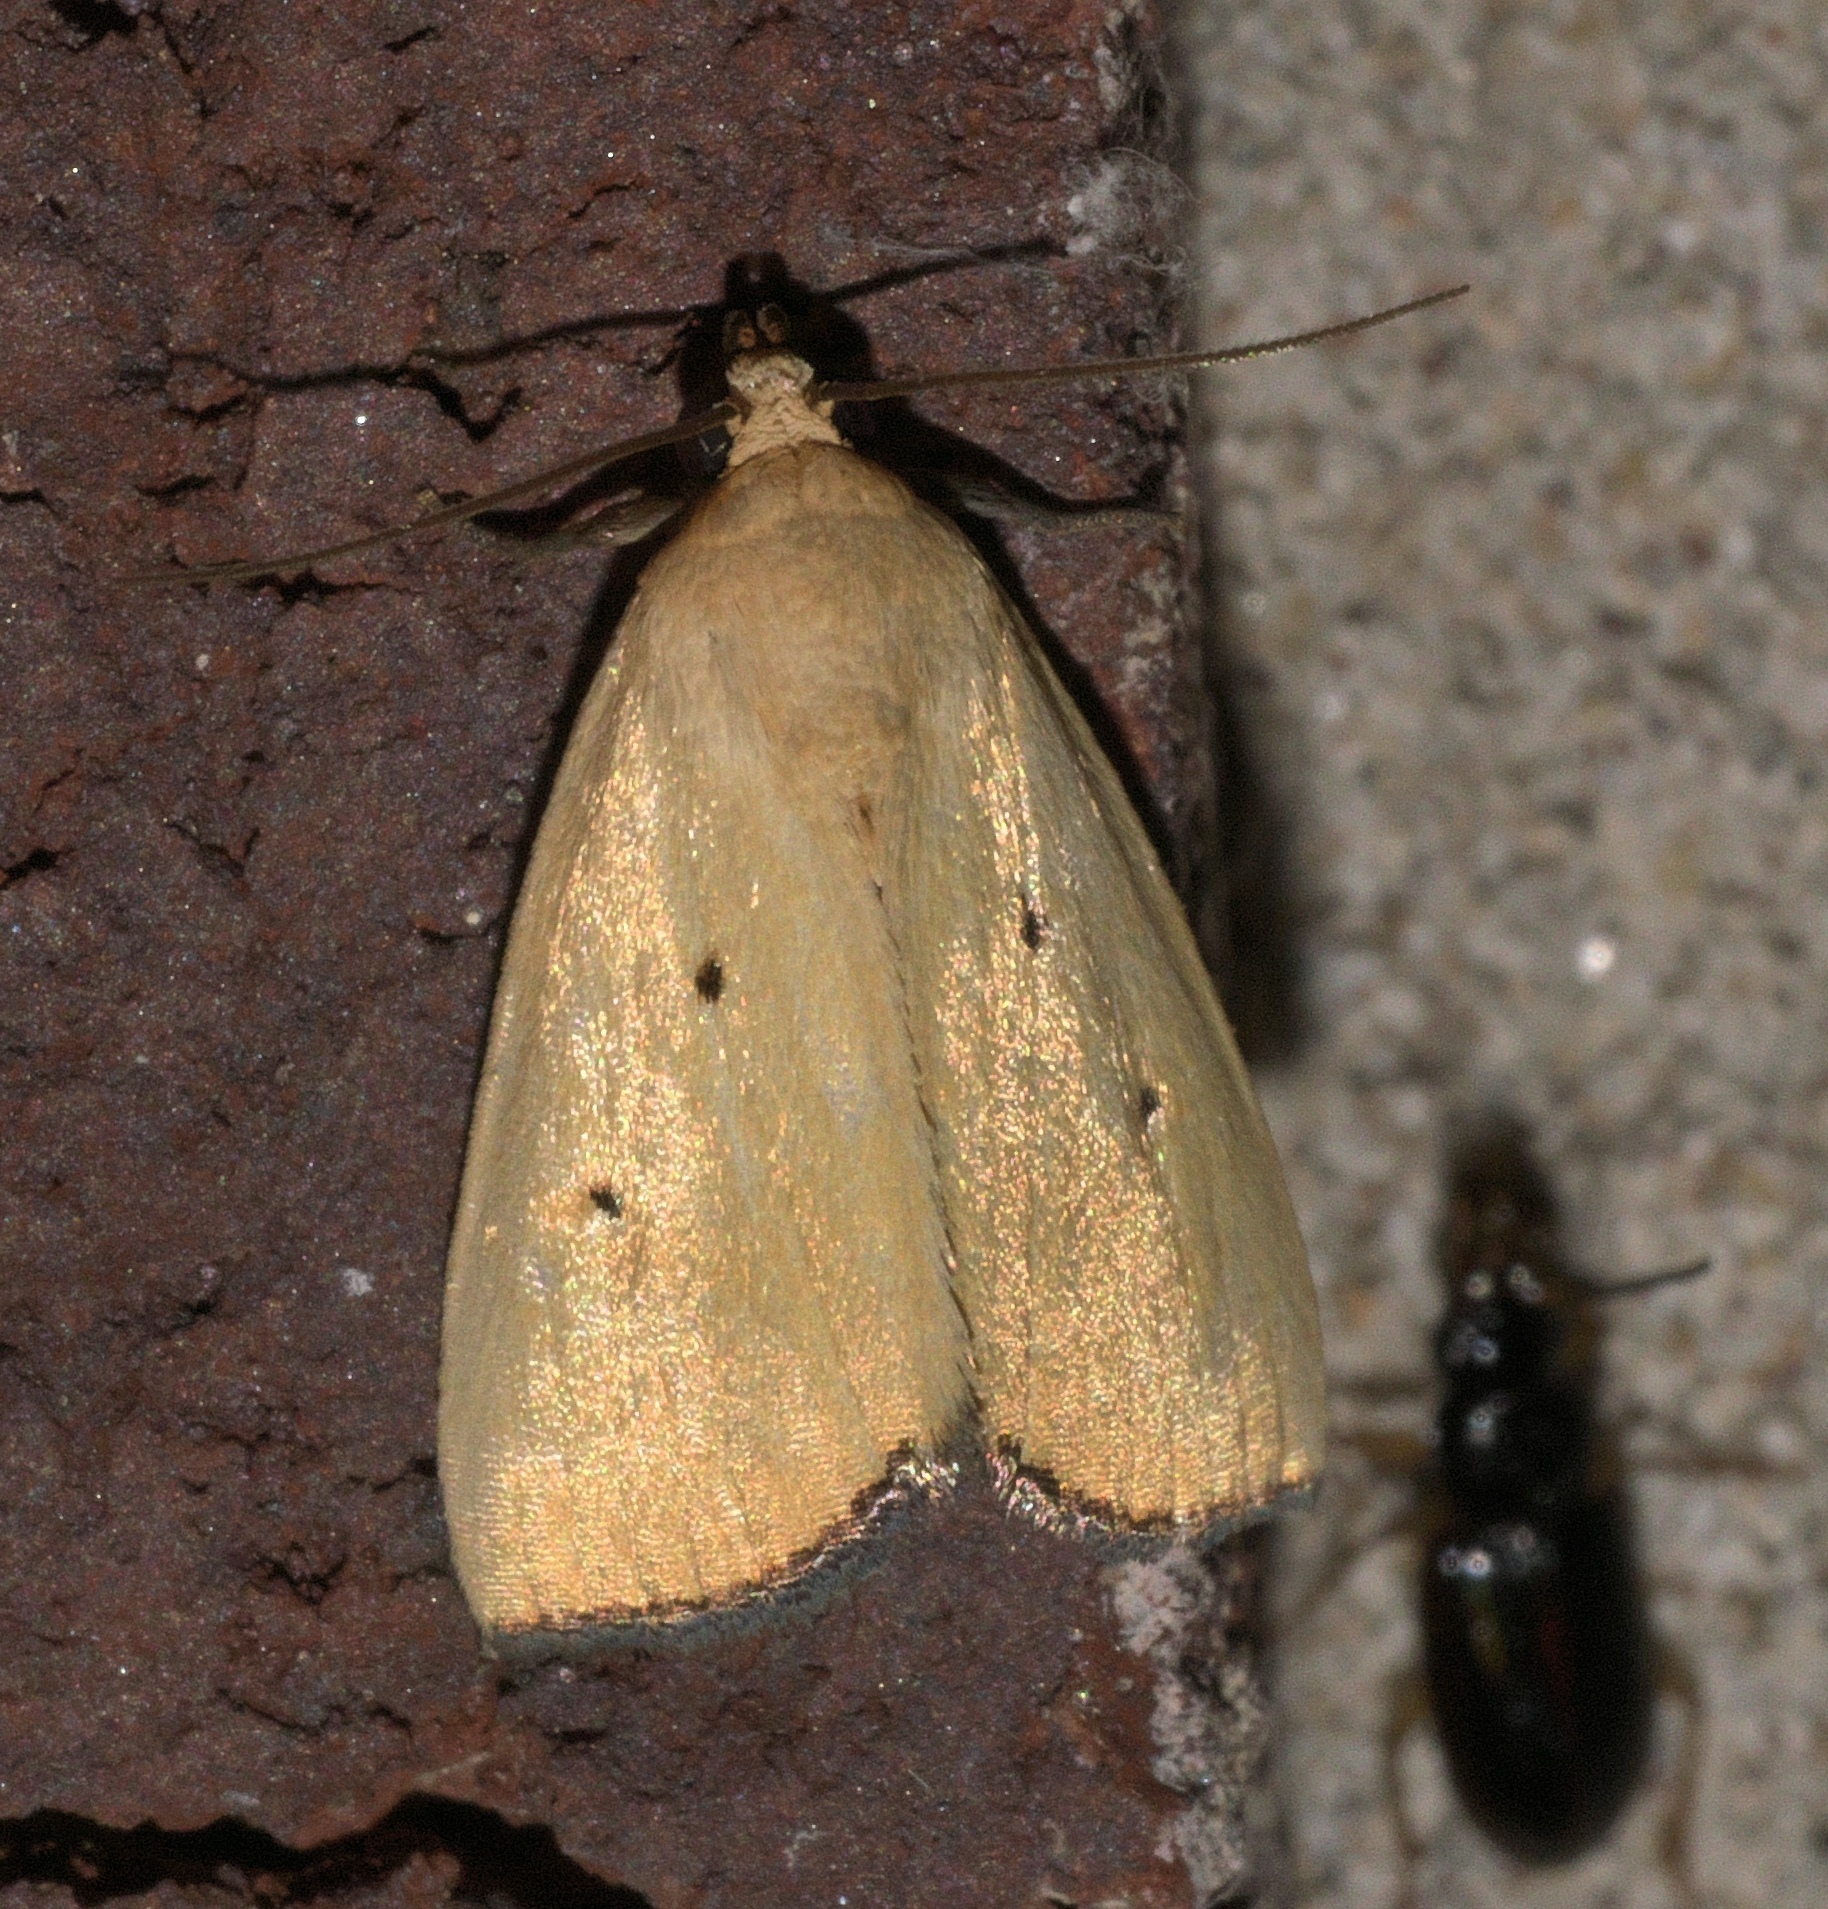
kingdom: Animalia
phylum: Arthropoda
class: Insecta
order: Lepidoptera
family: Noctuidae
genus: Marimatha
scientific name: Marimatha nigrofimbria
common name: Black-bordered lemon moth
